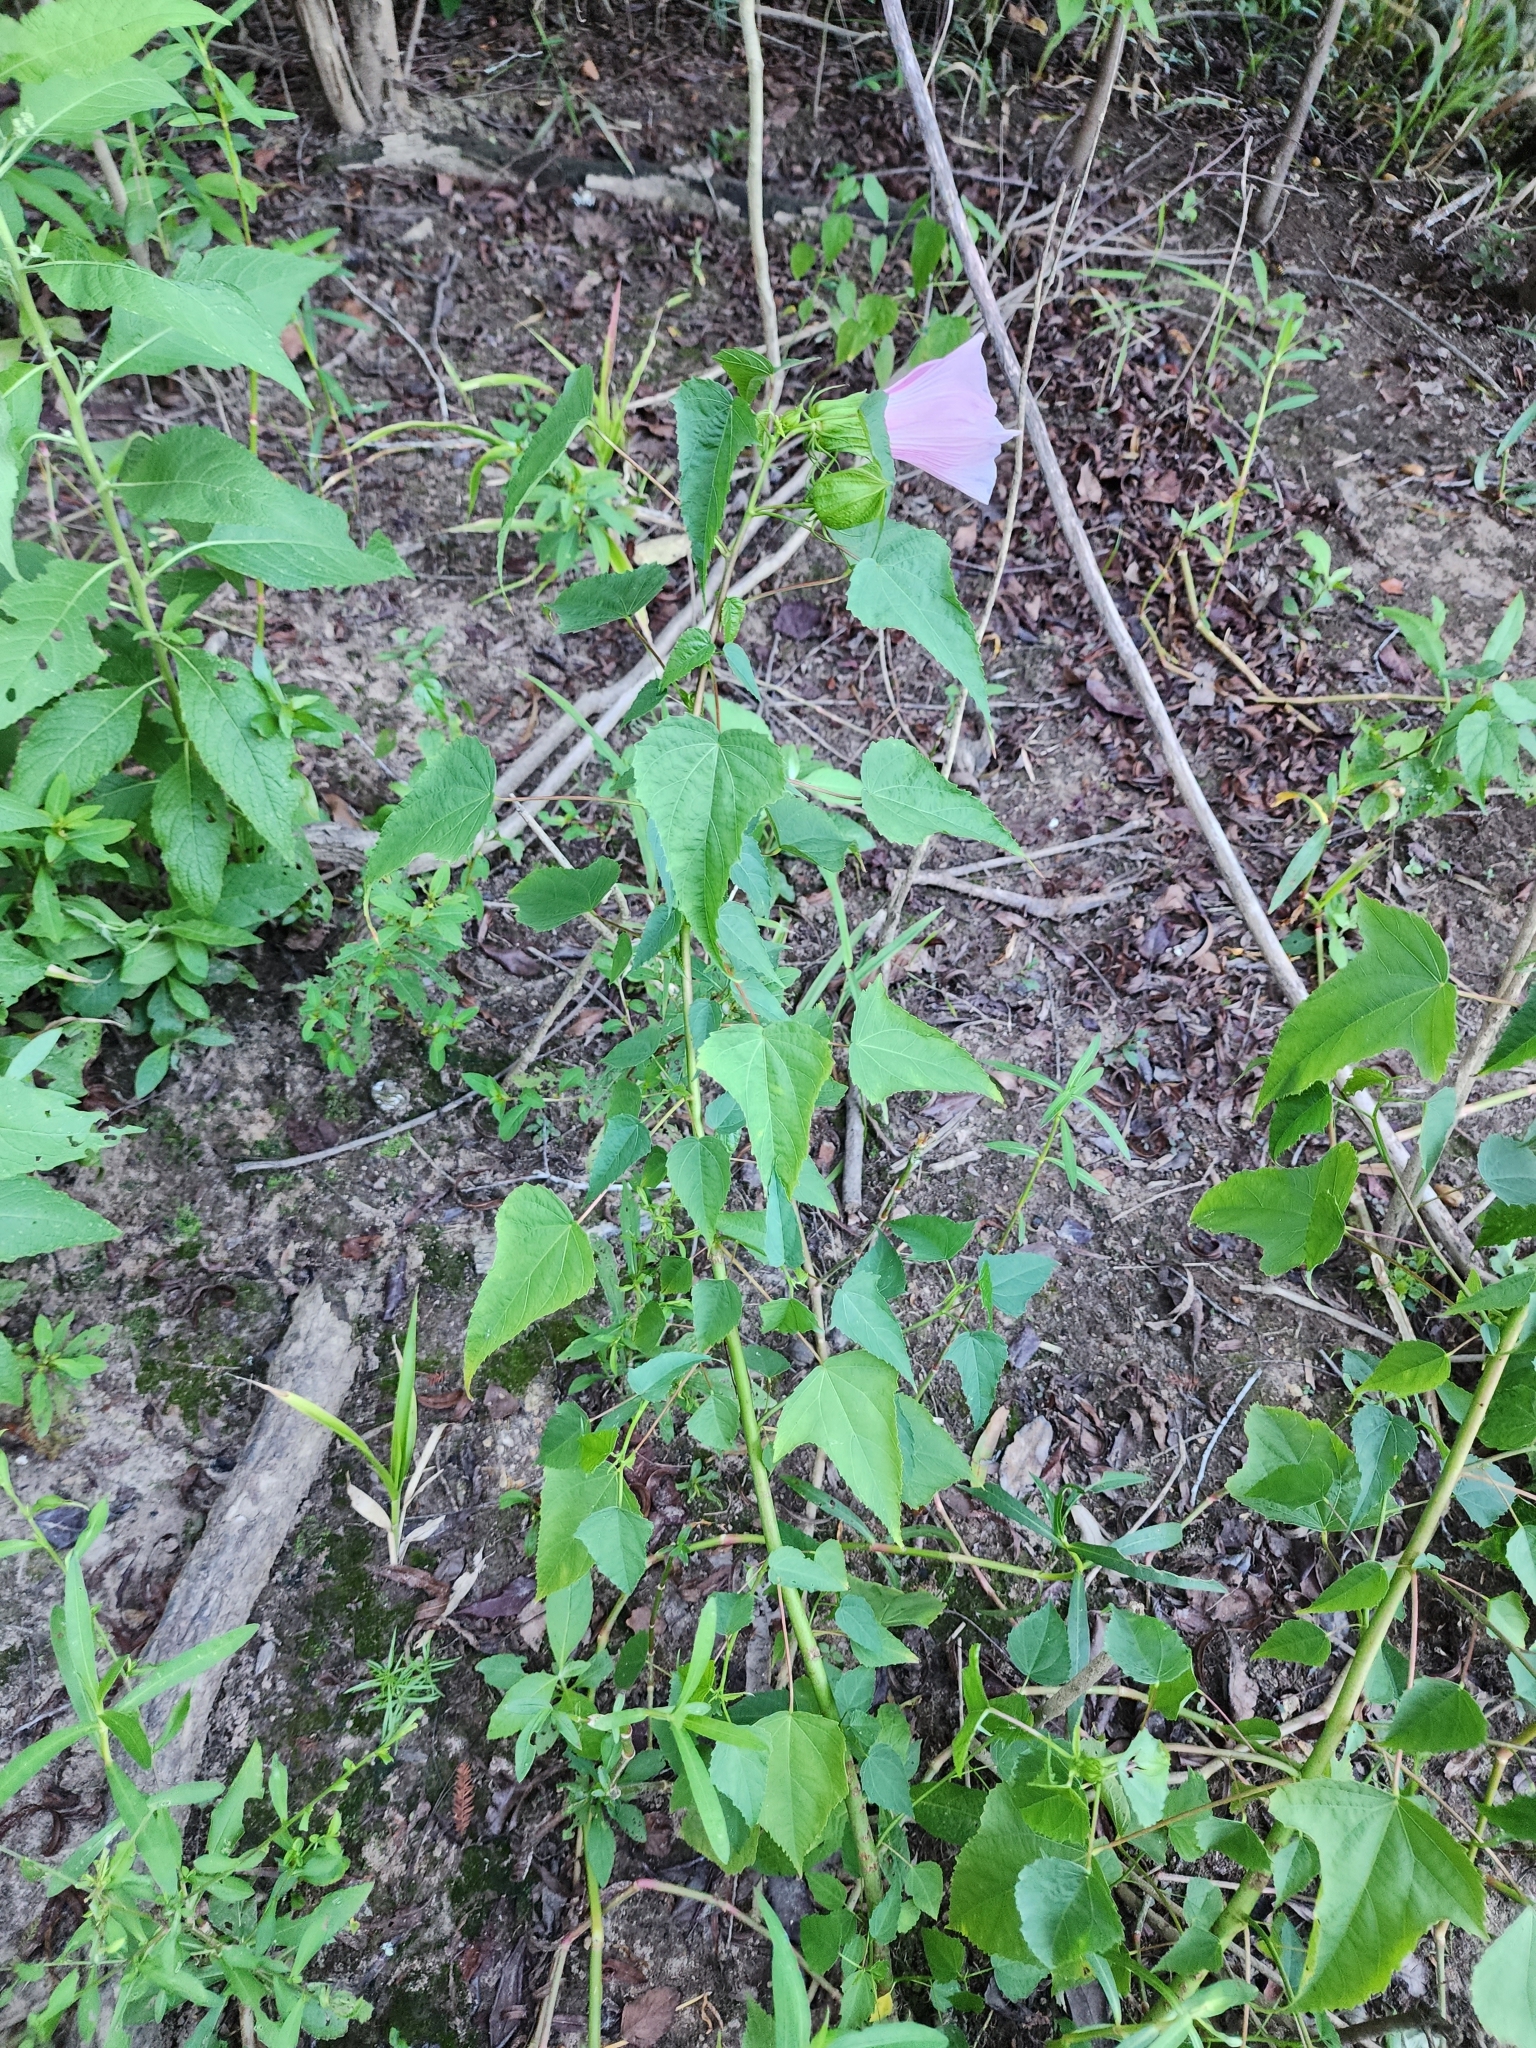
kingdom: Plantae
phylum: Tracheophyta
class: Magnoliopsida
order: Malvales
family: Malvaceae
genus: Hibiscus
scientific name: Hibiscus laevis
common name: Scarlet rose-mallow
